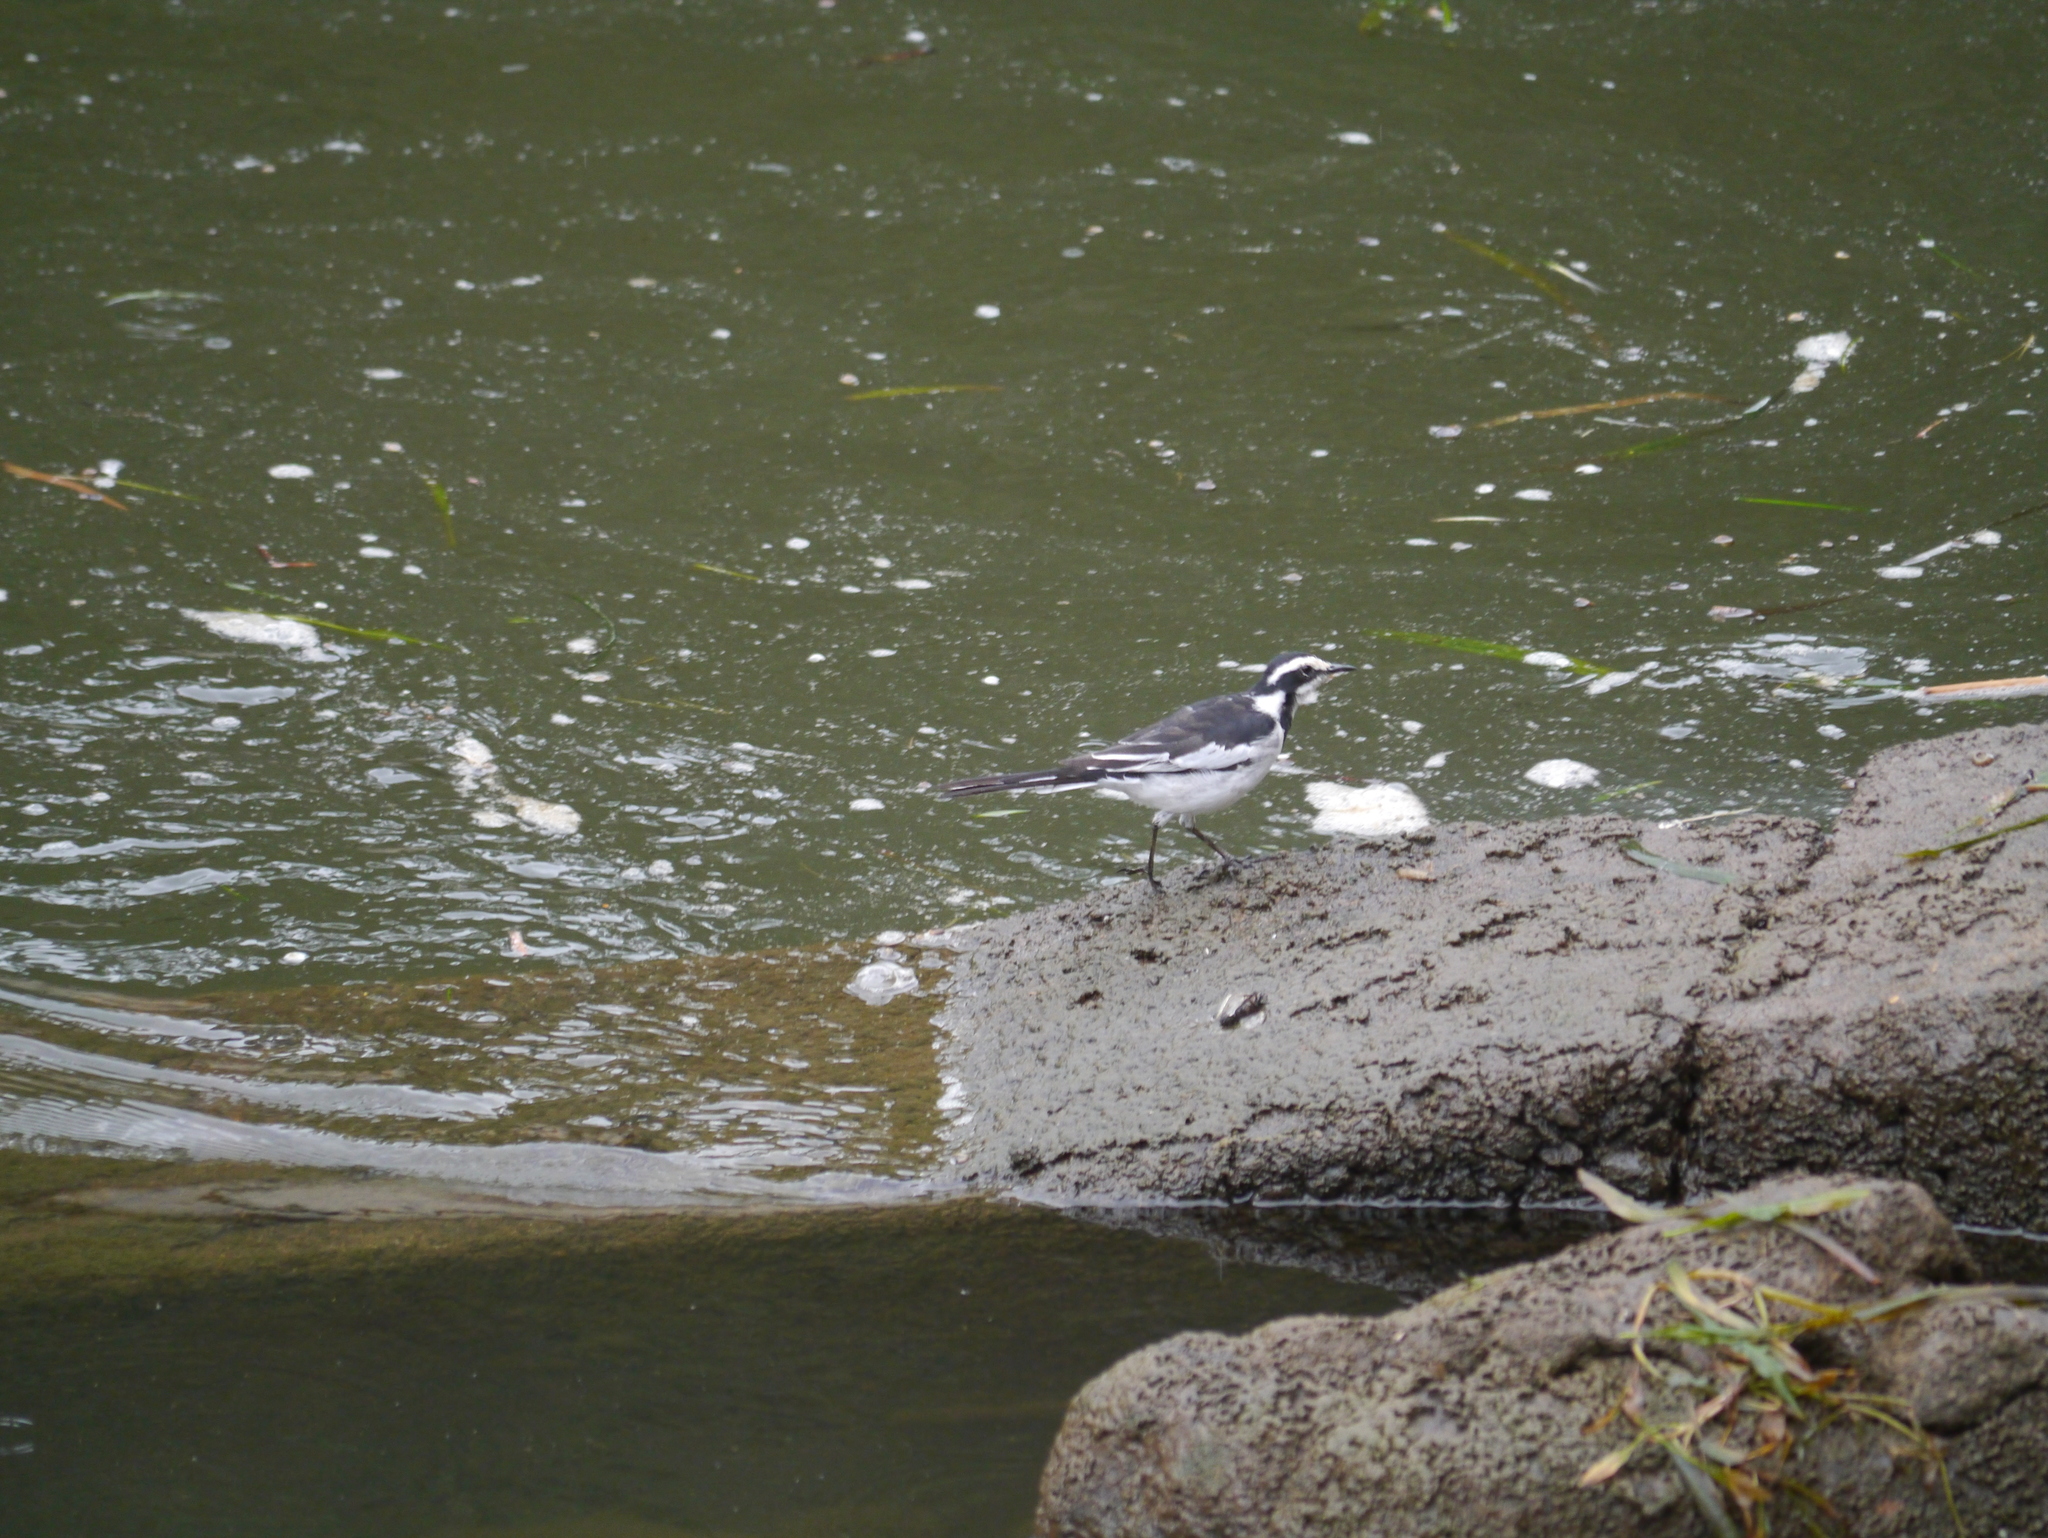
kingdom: Animalia
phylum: Chordata
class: Aves
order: Passeriformes
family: Motacillidae
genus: Motacilla
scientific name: Motacilla aguimp
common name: African pied wagtail
